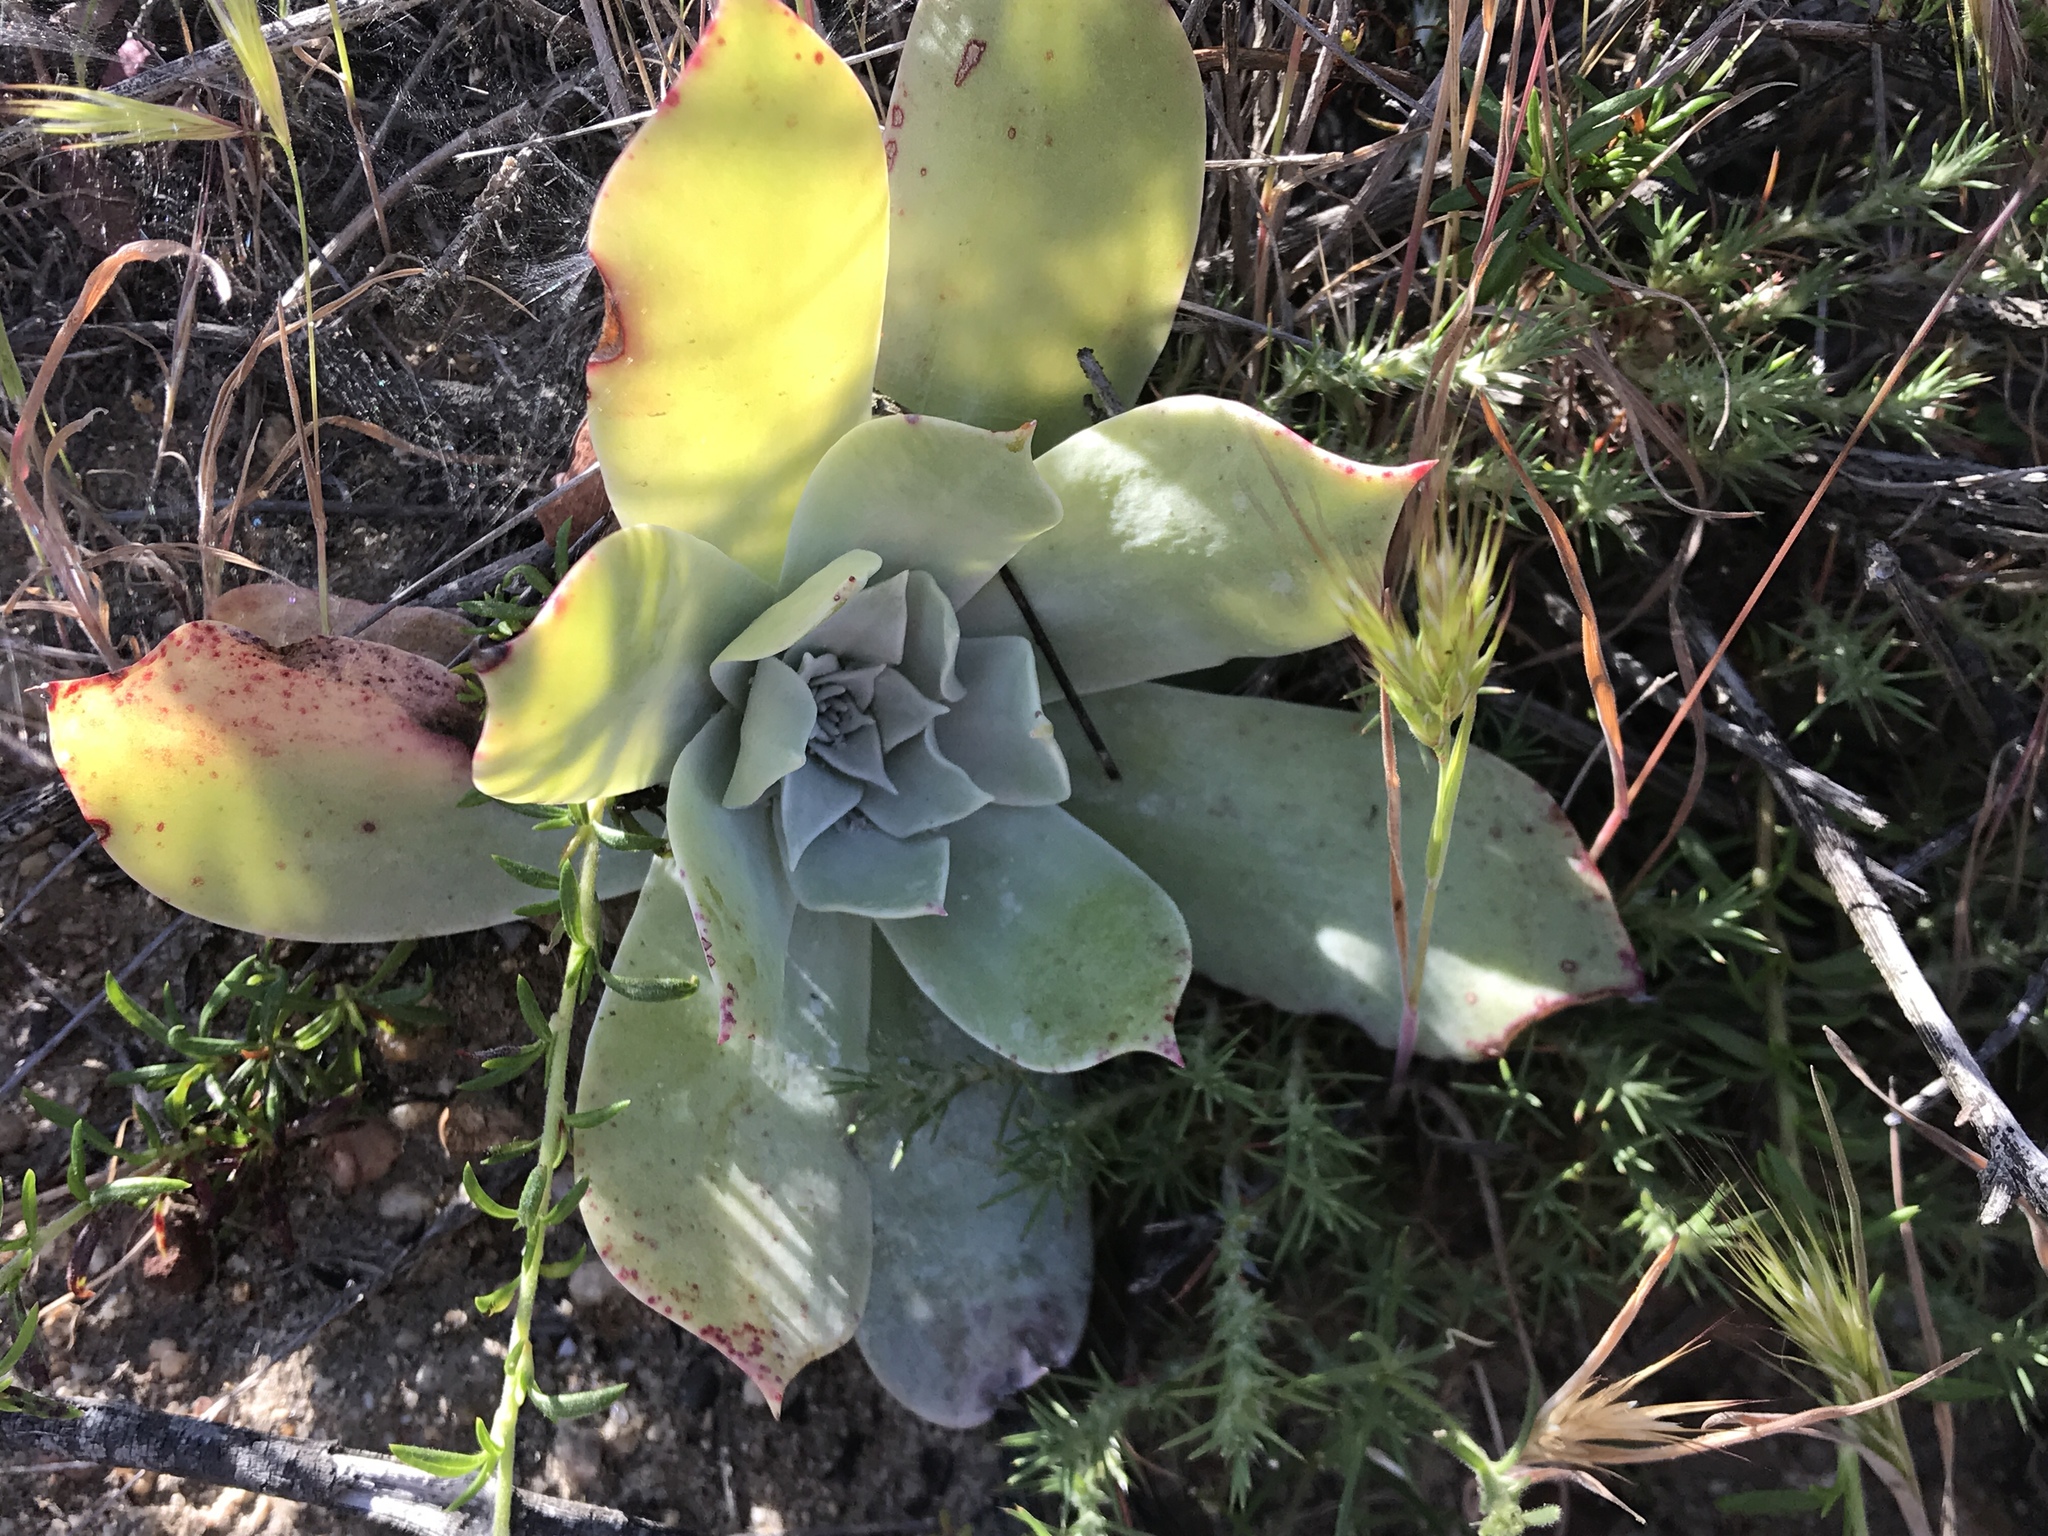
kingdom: Plantae
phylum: Tracheophyta
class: Magnoliopsida
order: Saxifragales
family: Crassulaceae
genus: Dudleya
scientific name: Dudleya pulverulenta
